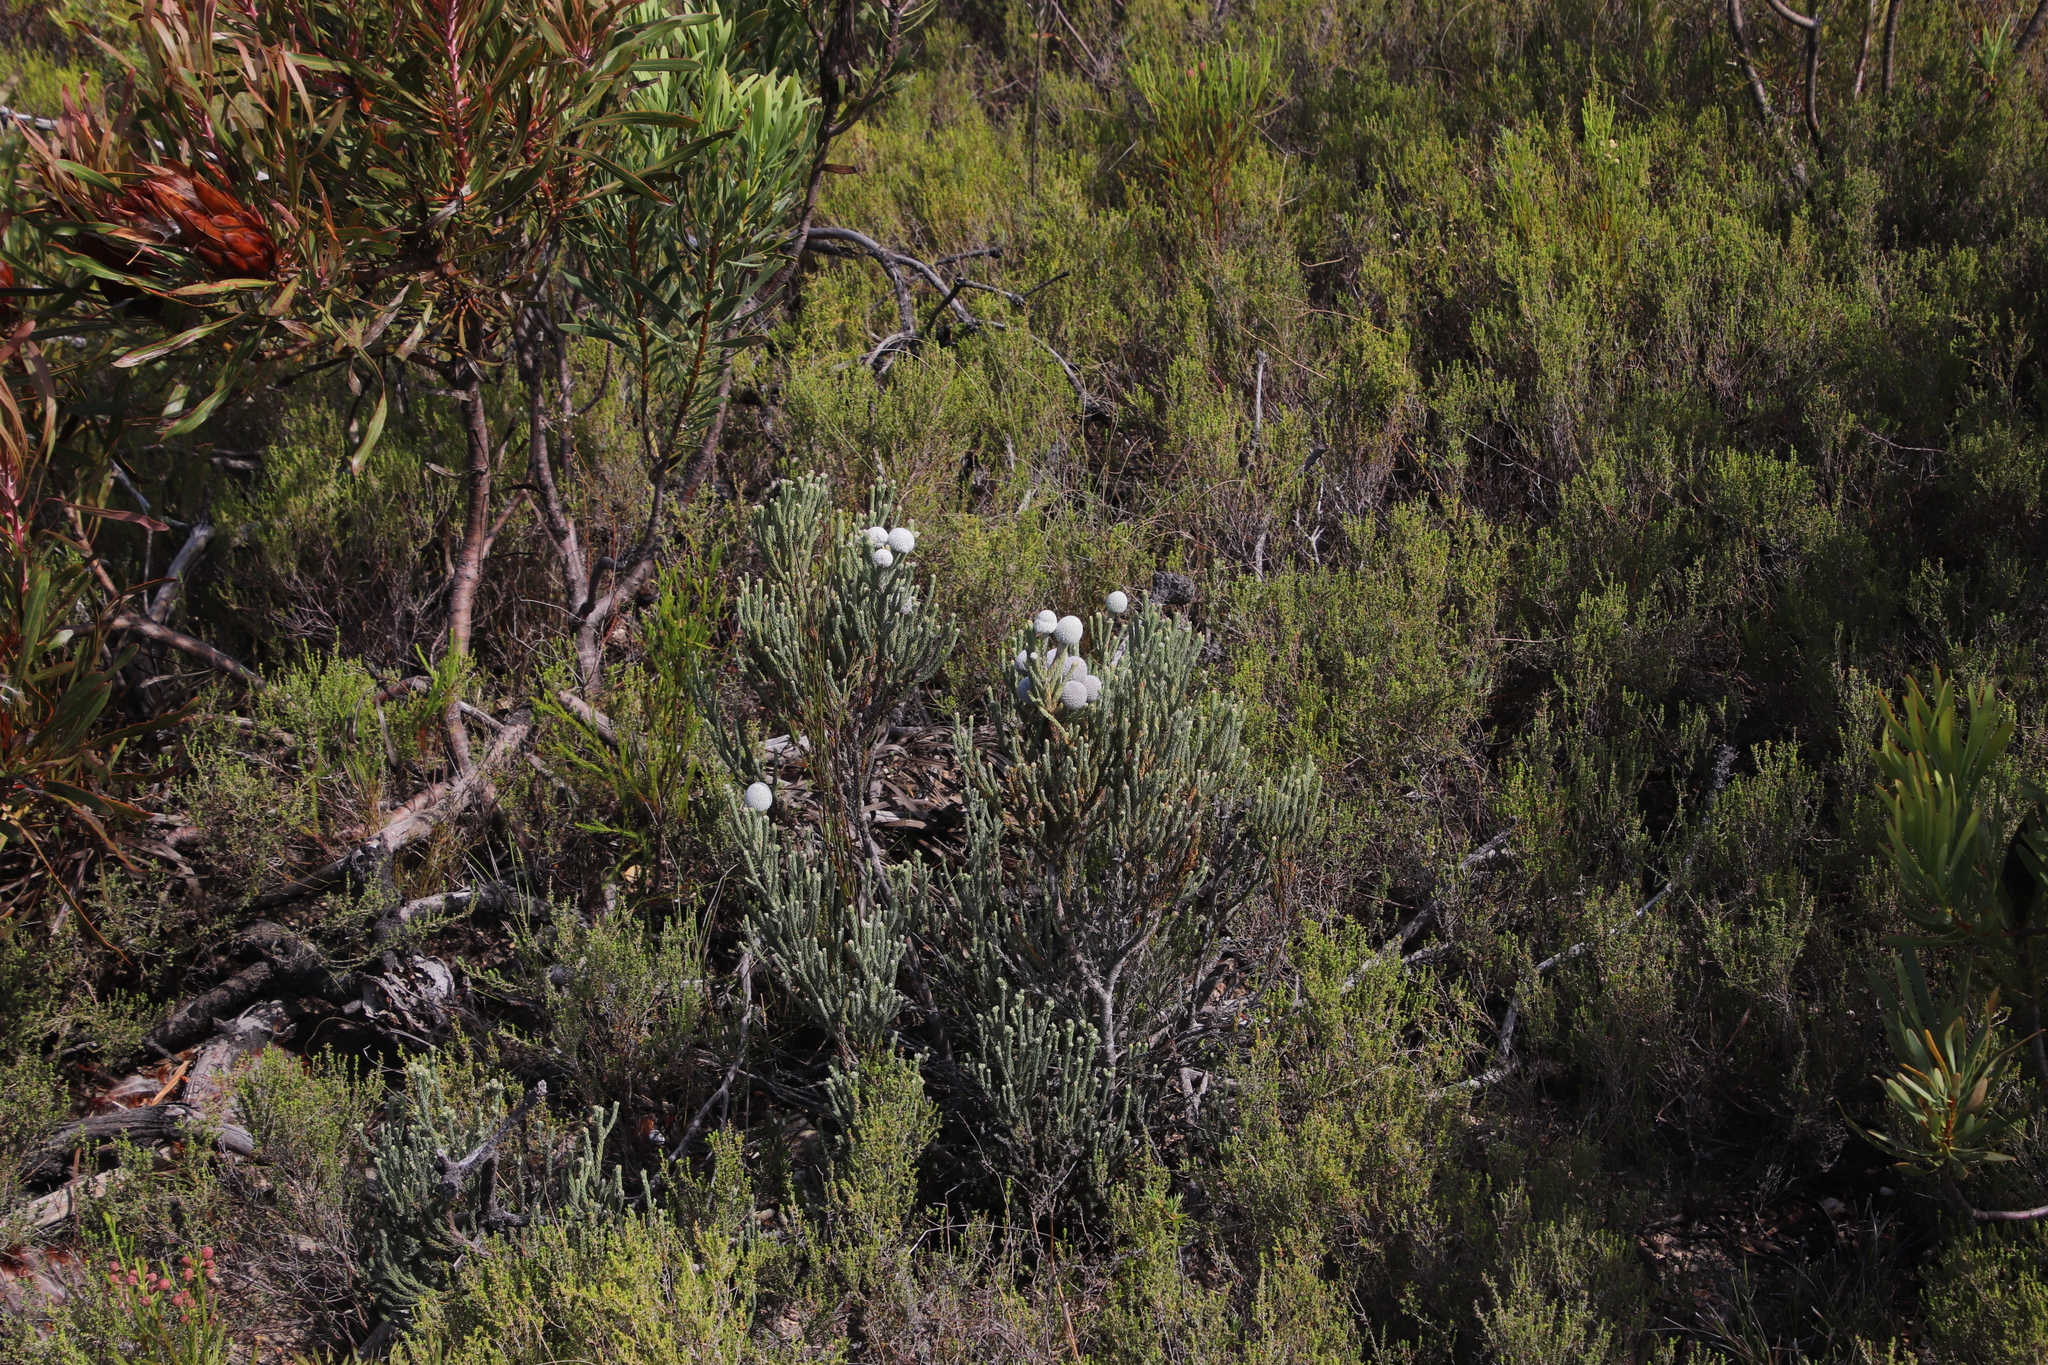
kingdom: Plantae
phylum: Tracheophyta
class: Magnoliopsida
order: Bruniales
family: Bruniaceae
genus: Brunia
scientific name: Brunia laevis
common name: Silver brunia
